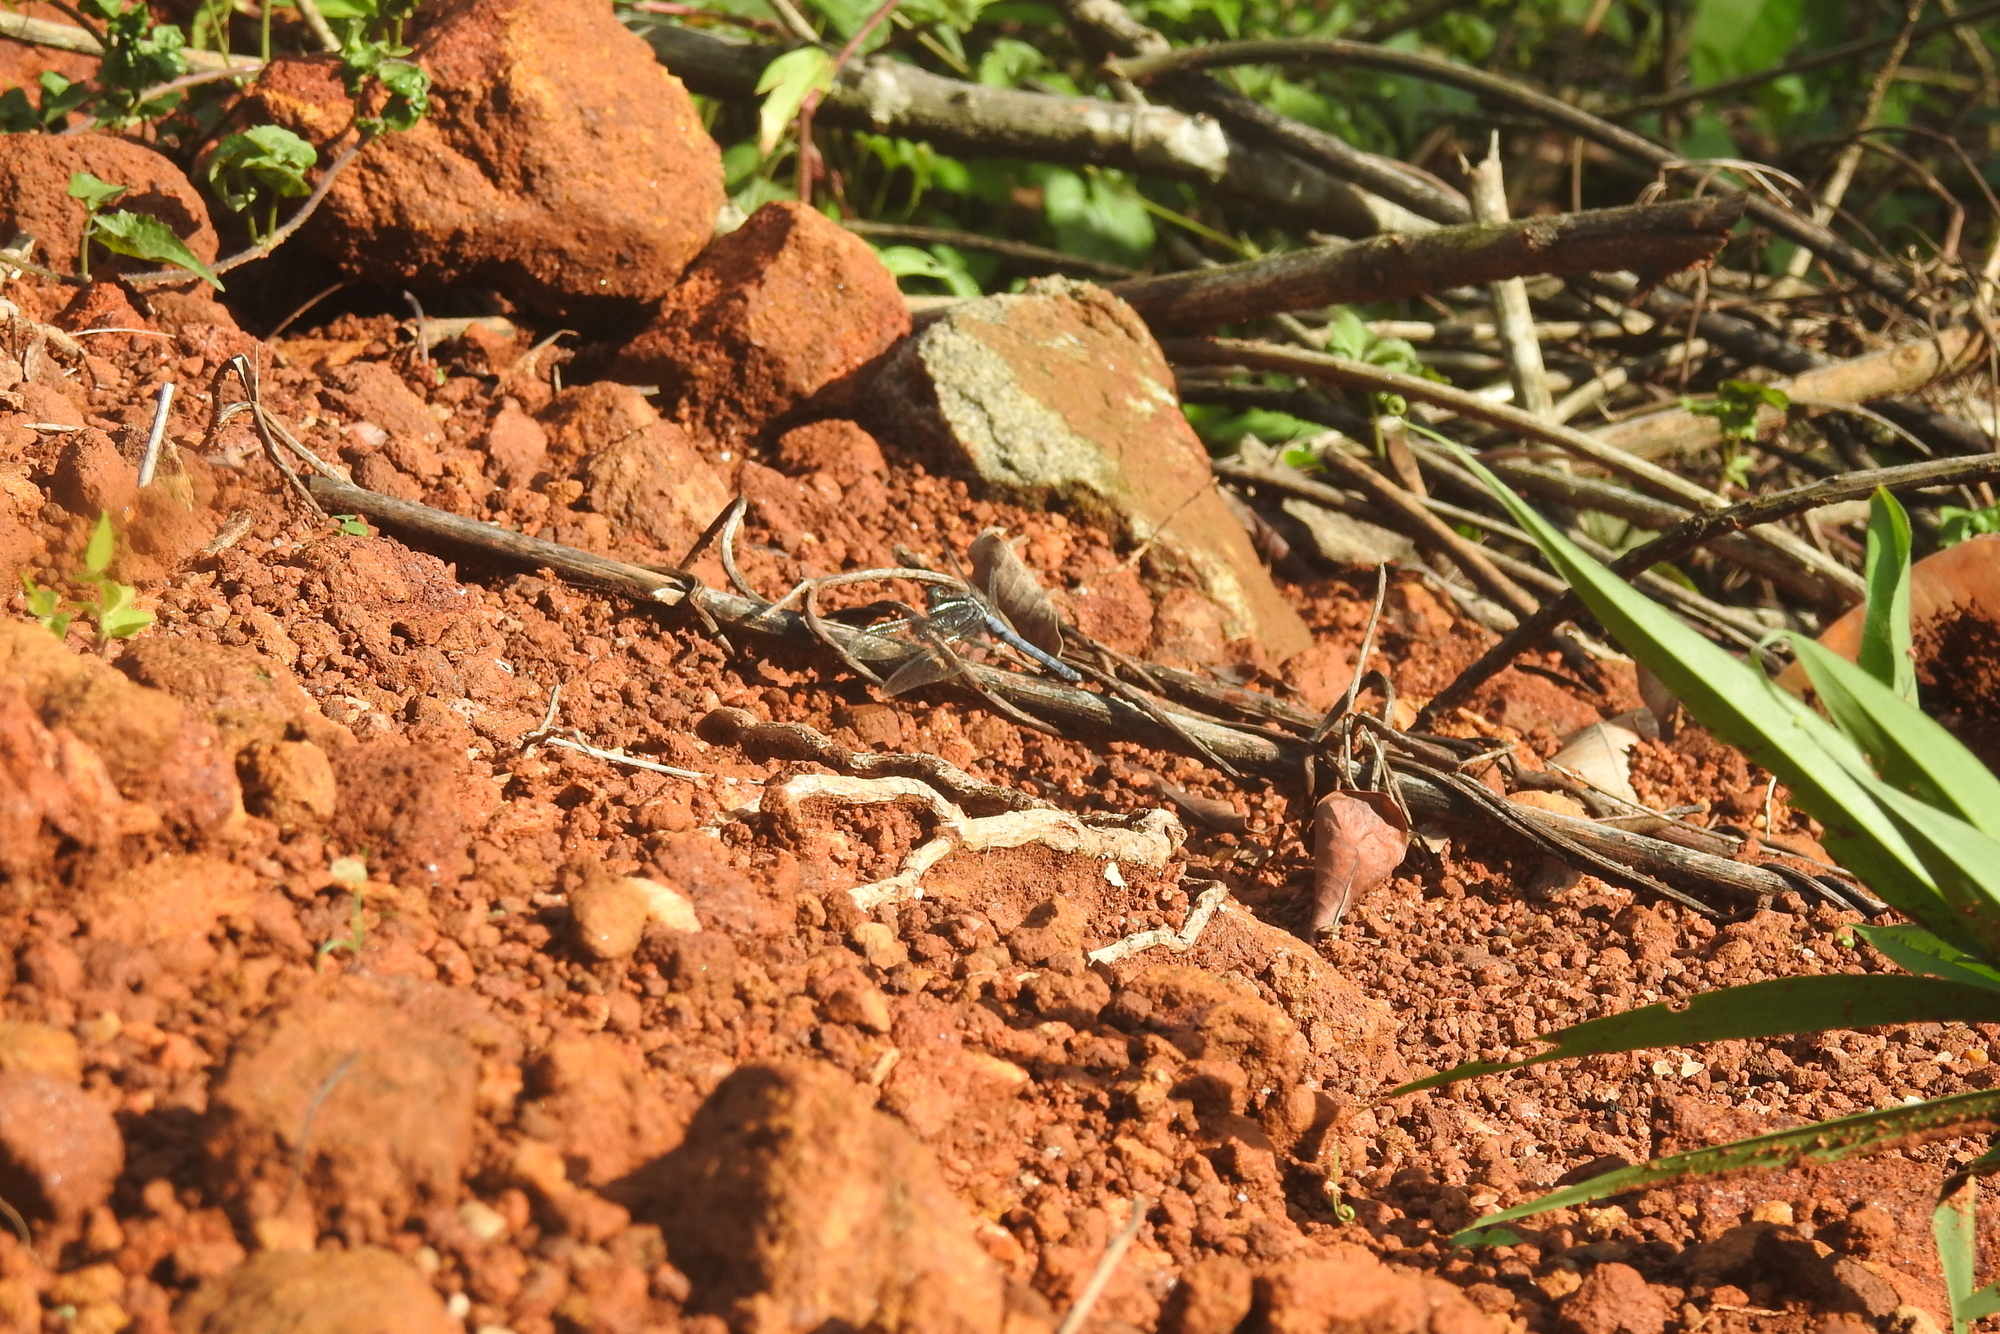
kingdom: Animalia
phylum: Arthropoda
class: Insecta
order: Odonata
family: Libellulidae
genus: Orthetrum
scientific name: Orthetrum glaucum
